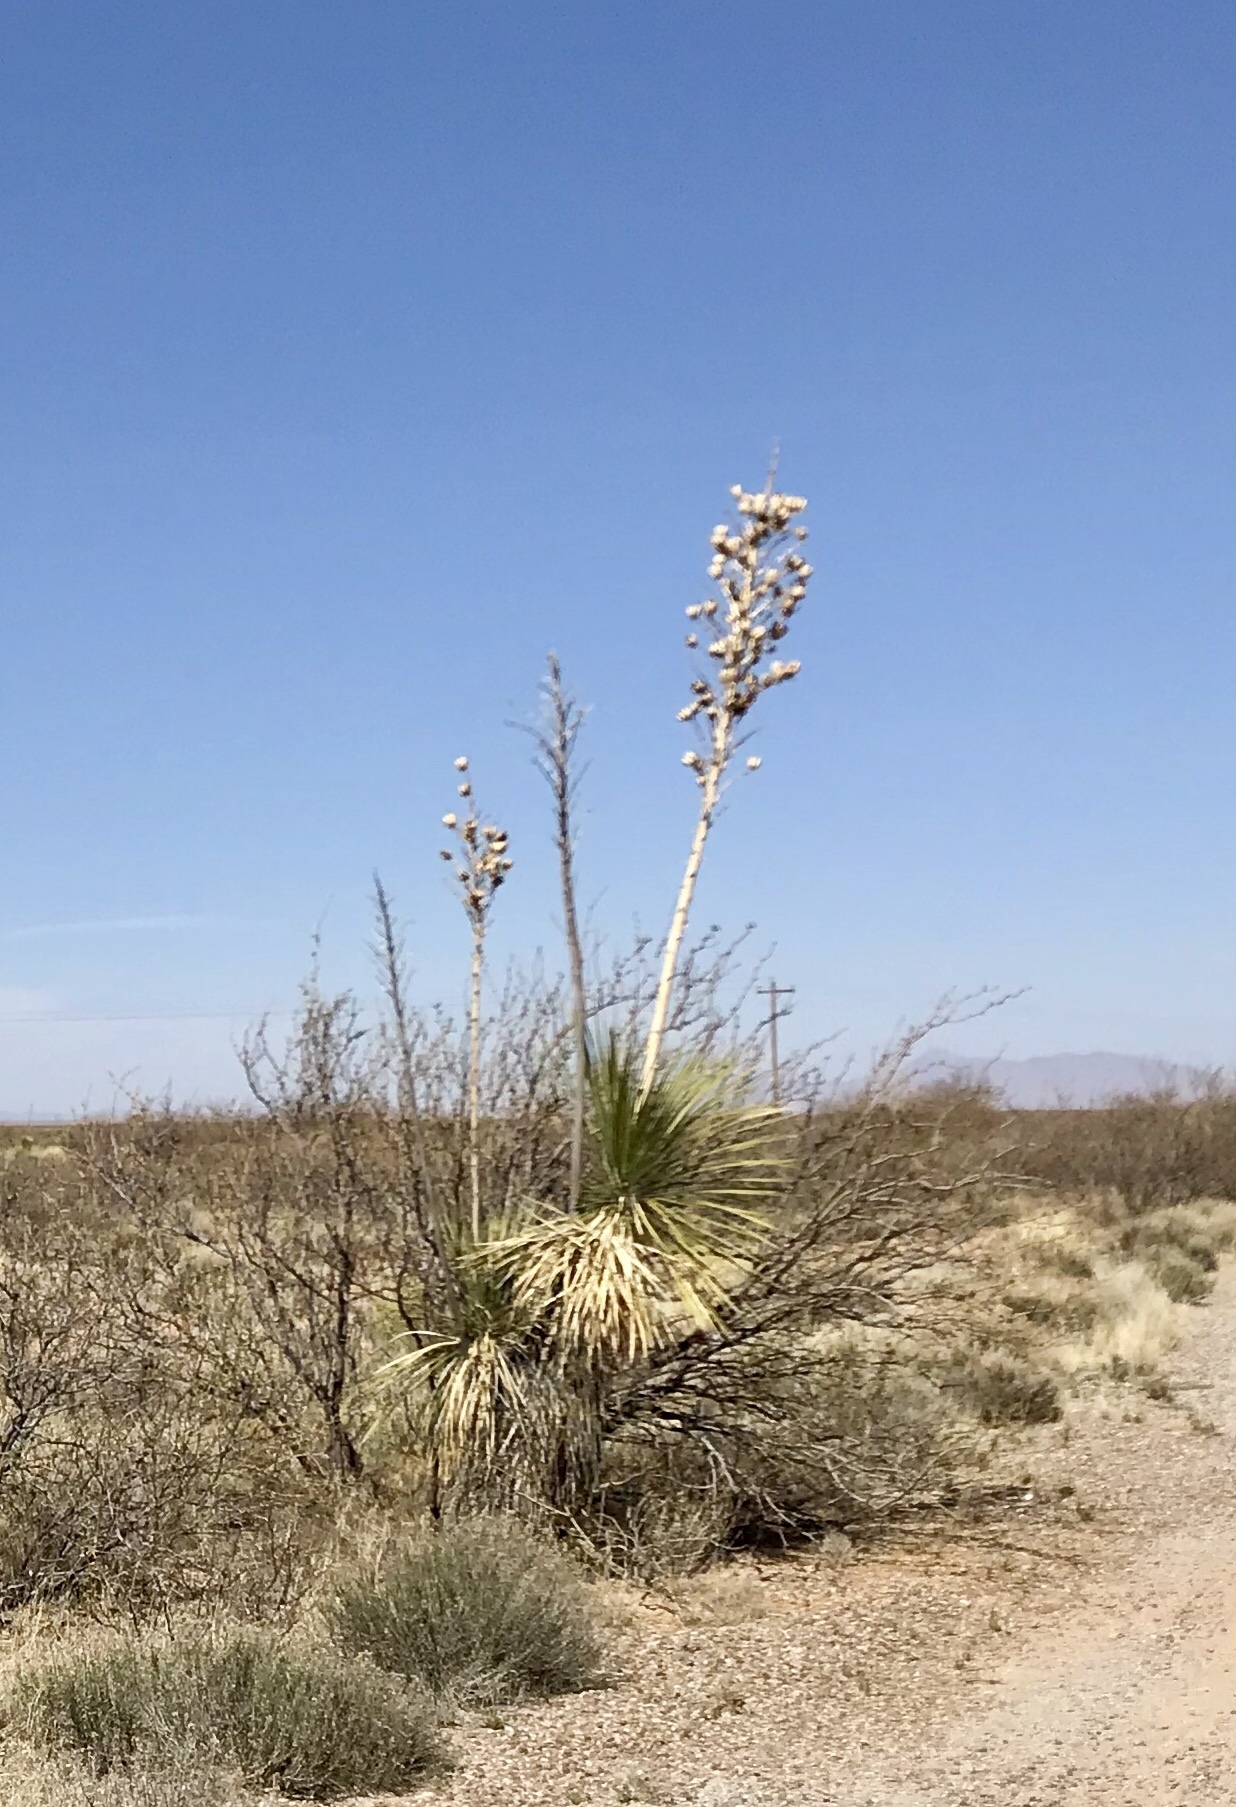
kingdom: Plantae
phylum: Tracheophyta
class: Liliopsida
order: Asparagales
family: Asparagaceae
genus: Yucca
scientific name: Yucca elata
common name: Palmella
